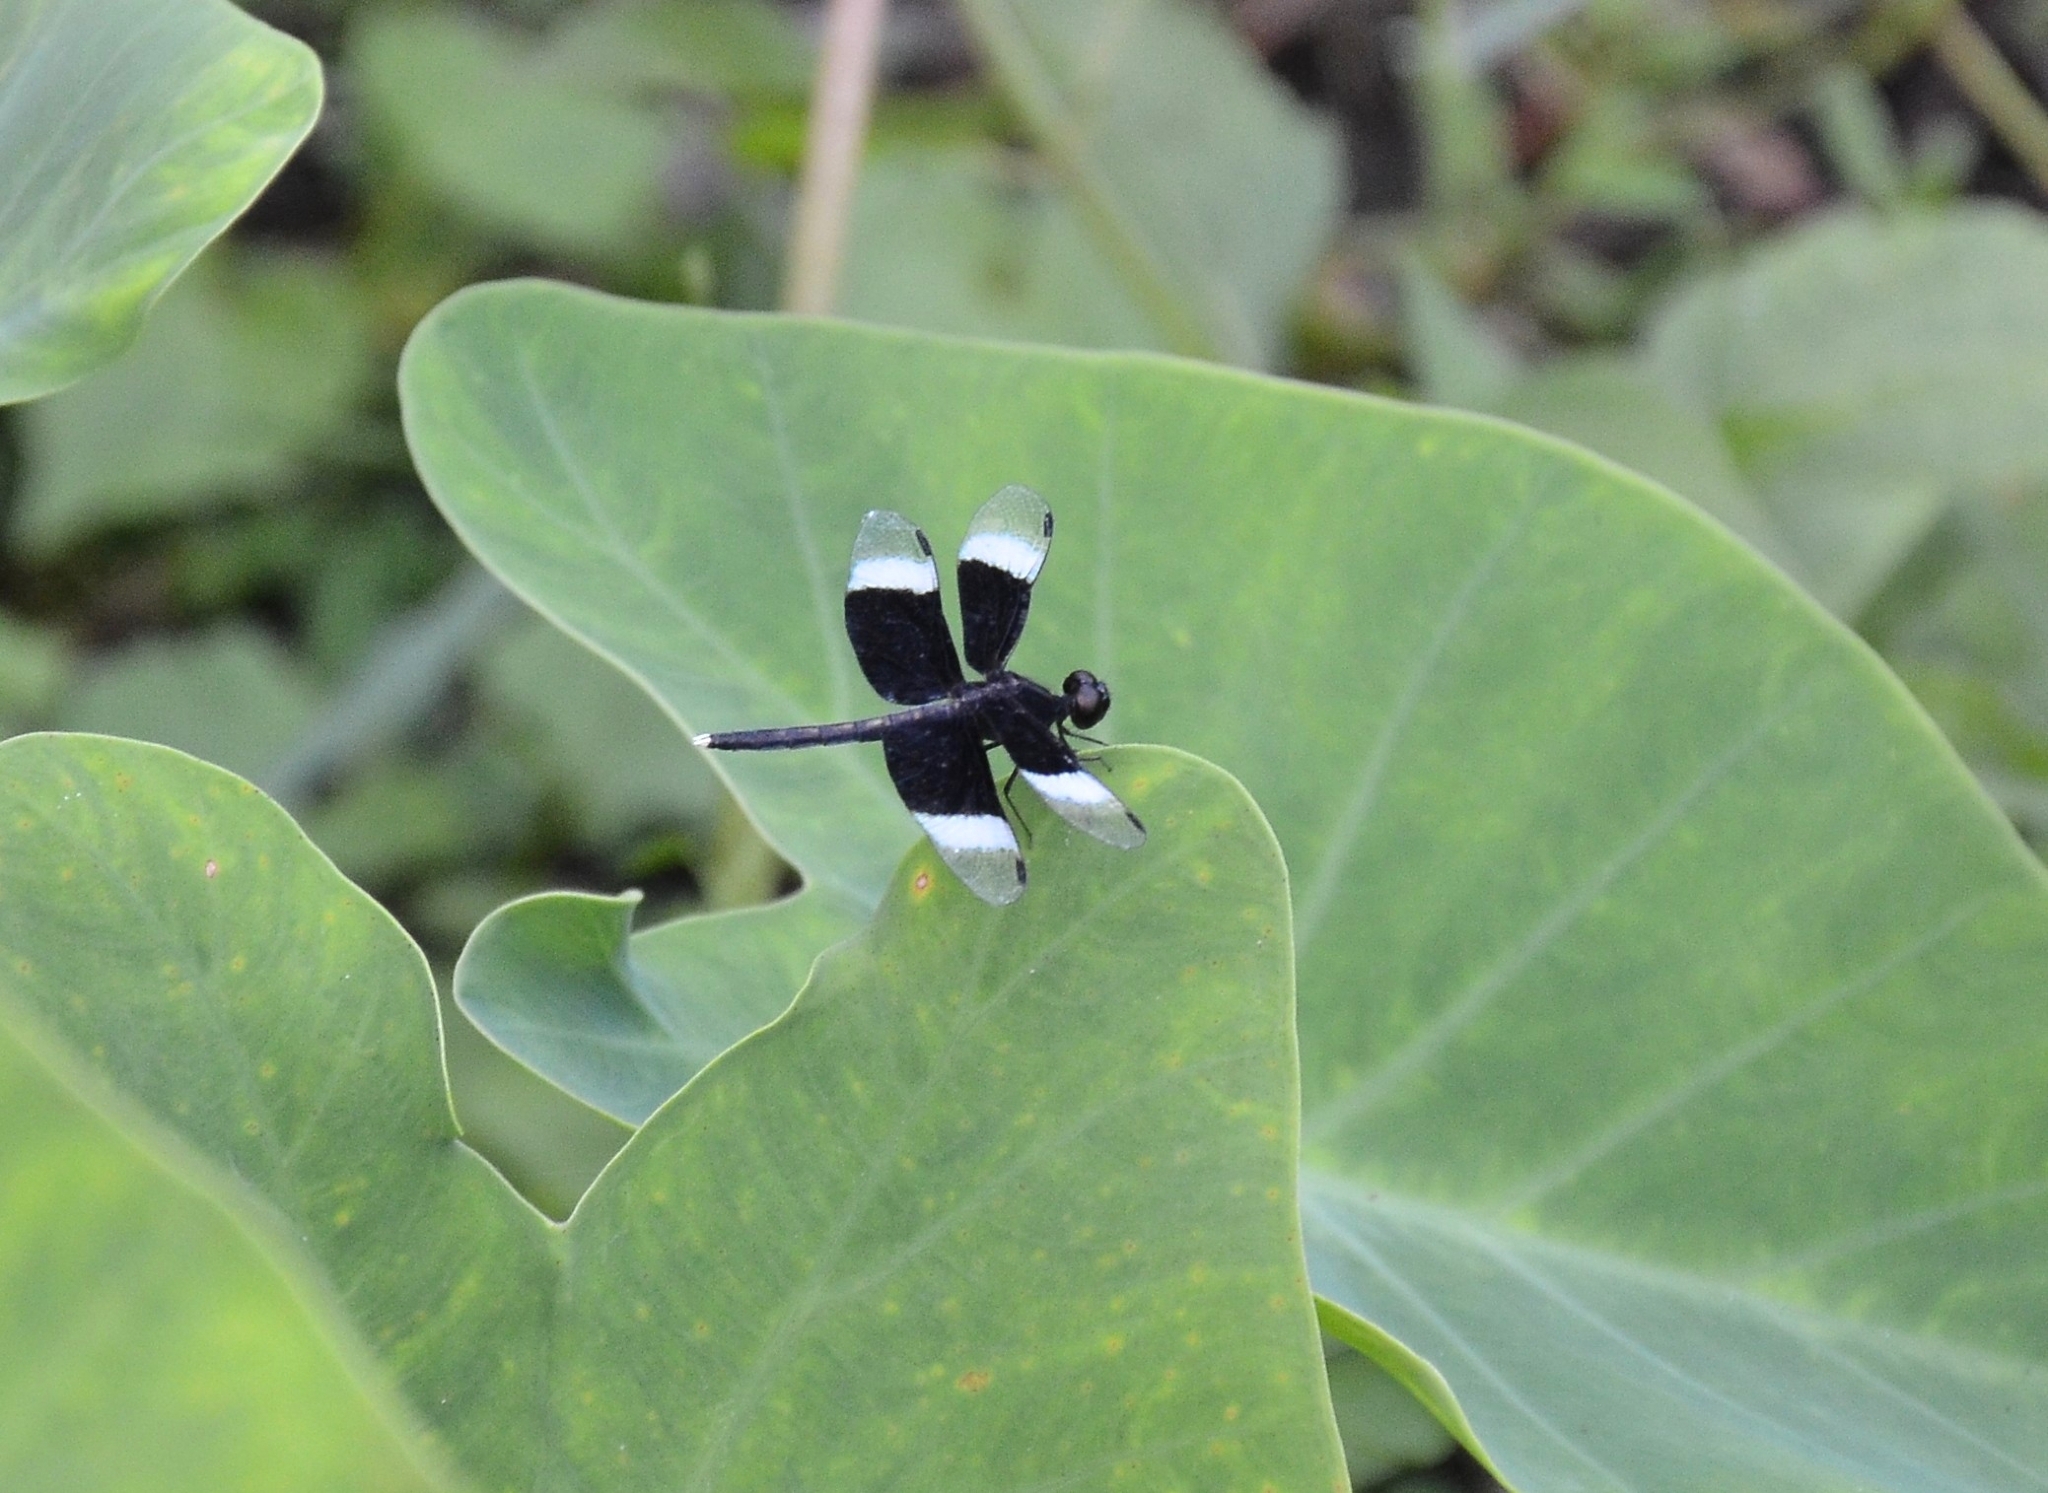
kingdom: Animalia
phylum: Arthropoda
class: Insecta
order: Odonata
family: Libellulidae
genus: Neurothemis
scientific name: Neurothemis tullia
